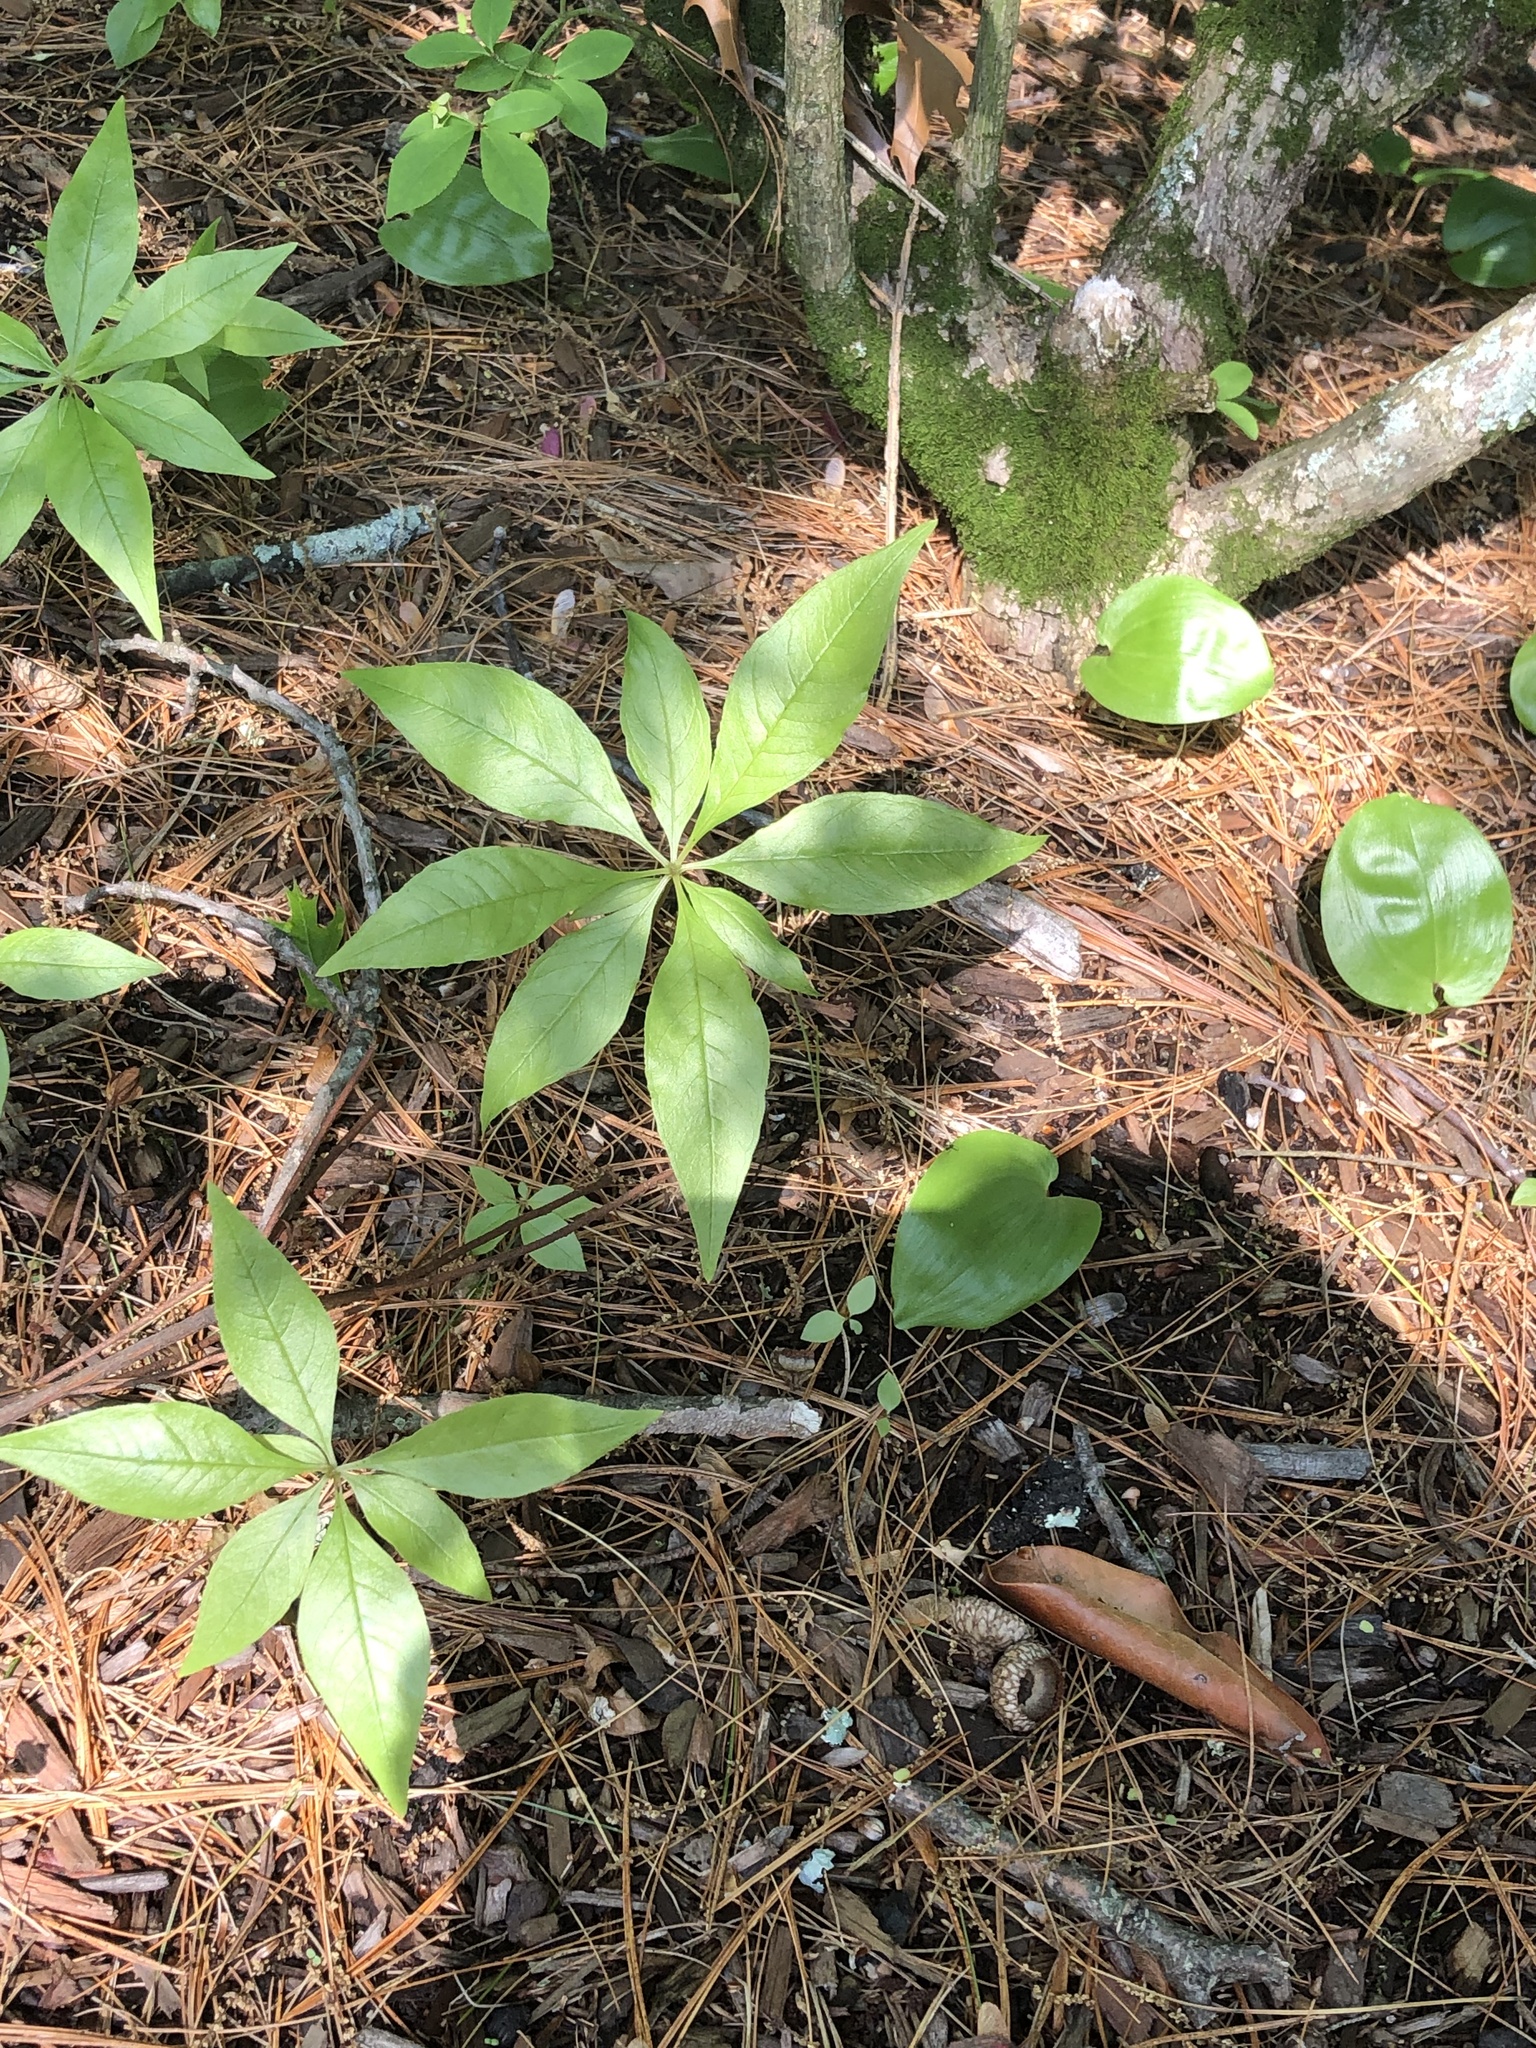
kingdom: Plantae
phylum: Tracheophyta
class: Magnoliopsida
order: Ericales
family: Primulaceae
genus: Lysimachia
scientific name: Lysimachia borealis
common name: American starflower
